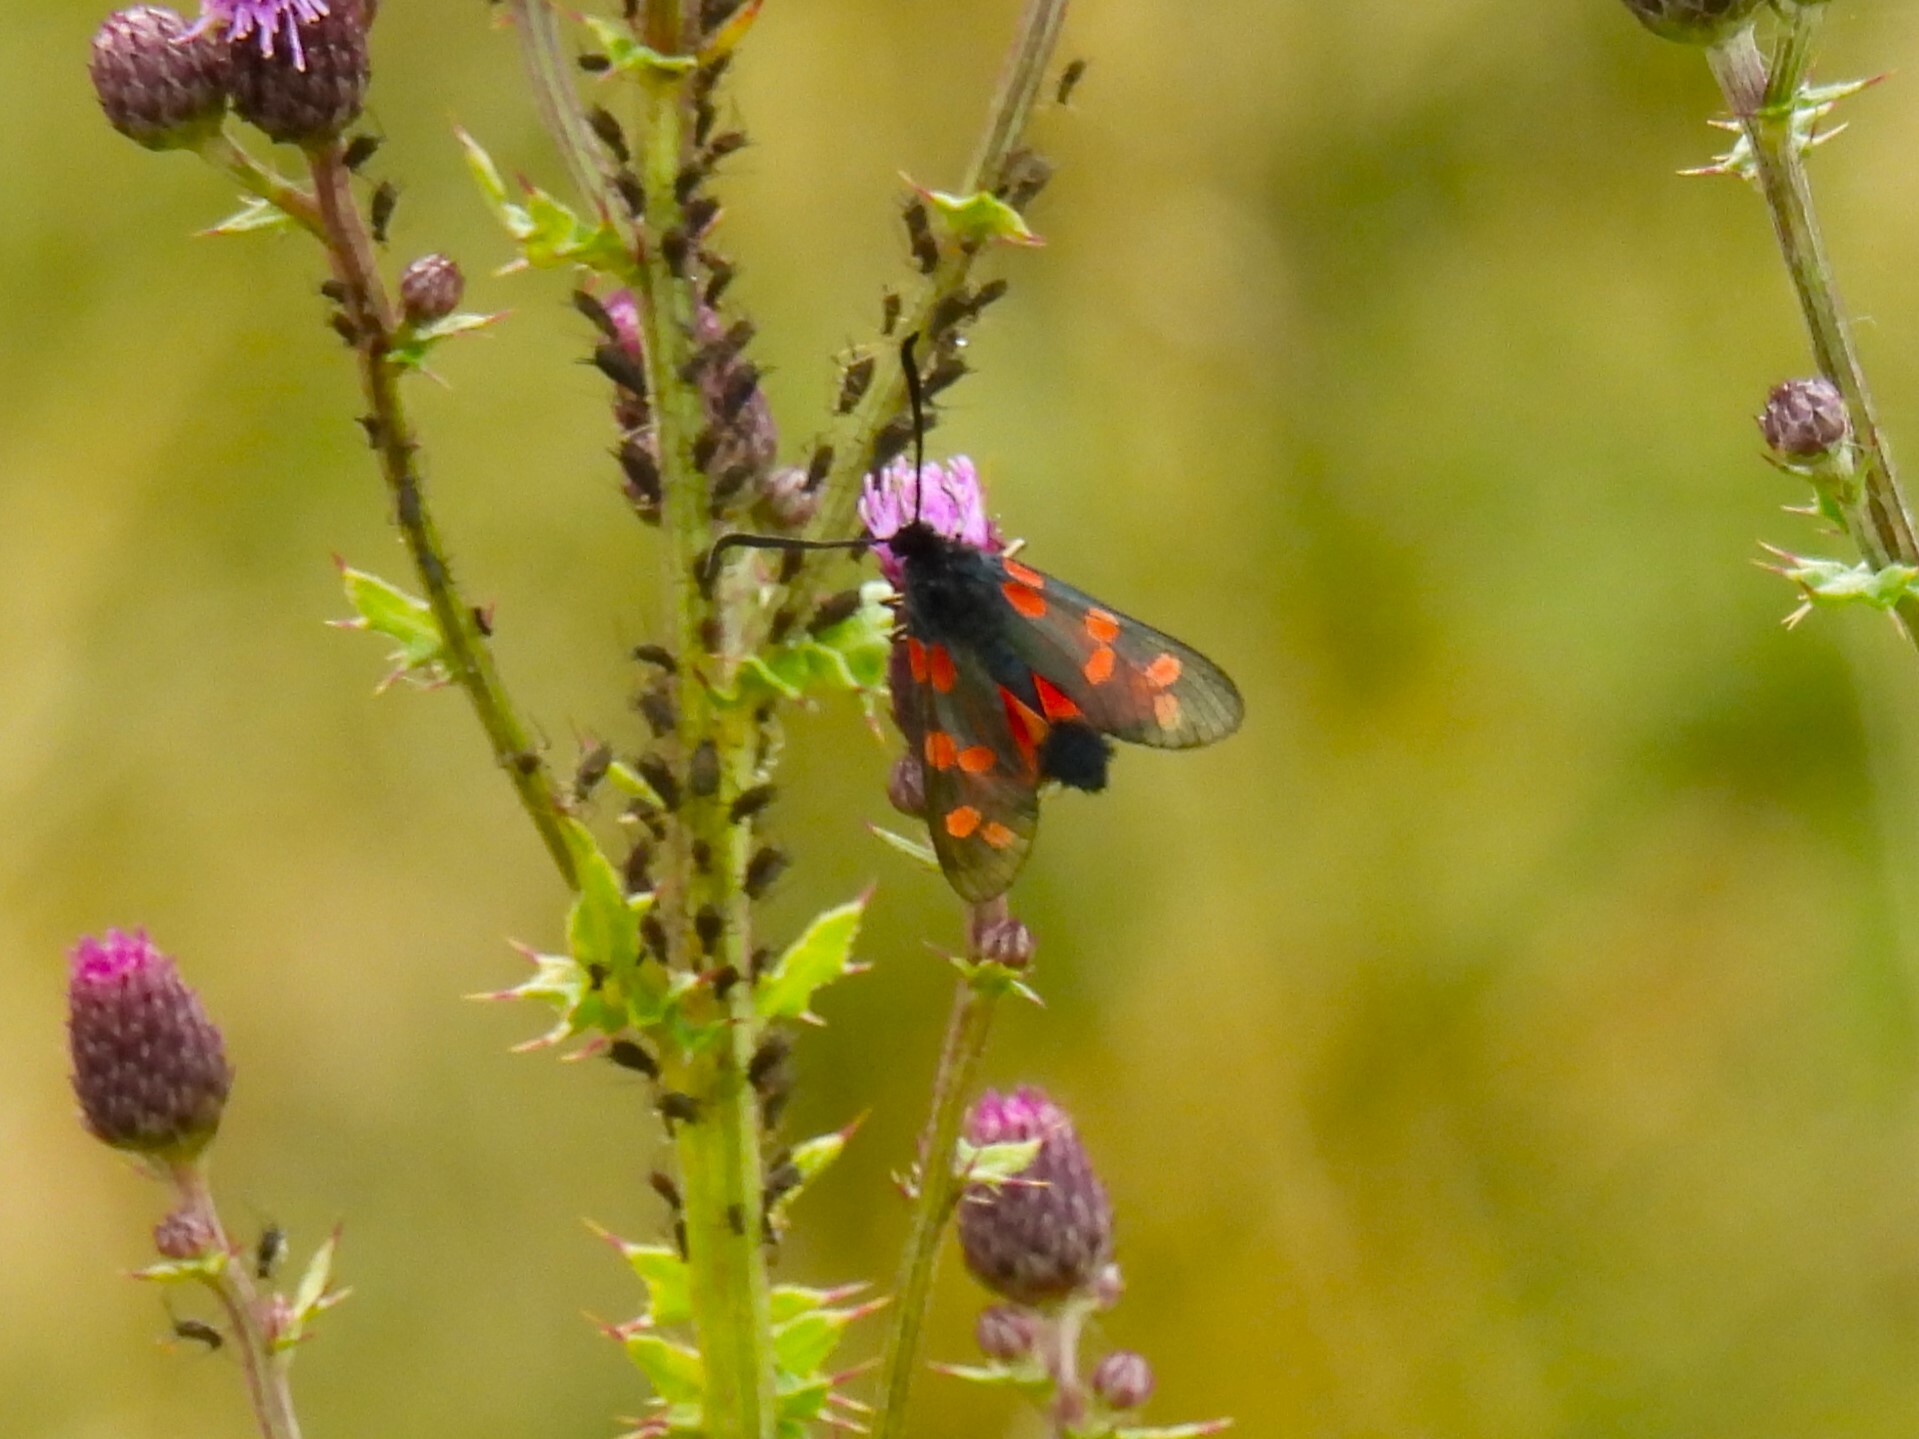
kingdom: Animalia
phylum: Arthropoda
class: Insecta
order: Lepidoptera
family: Zygaenidae
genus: Zygaena
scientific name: Zygaena filipendulae
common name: Six-spot burnet
